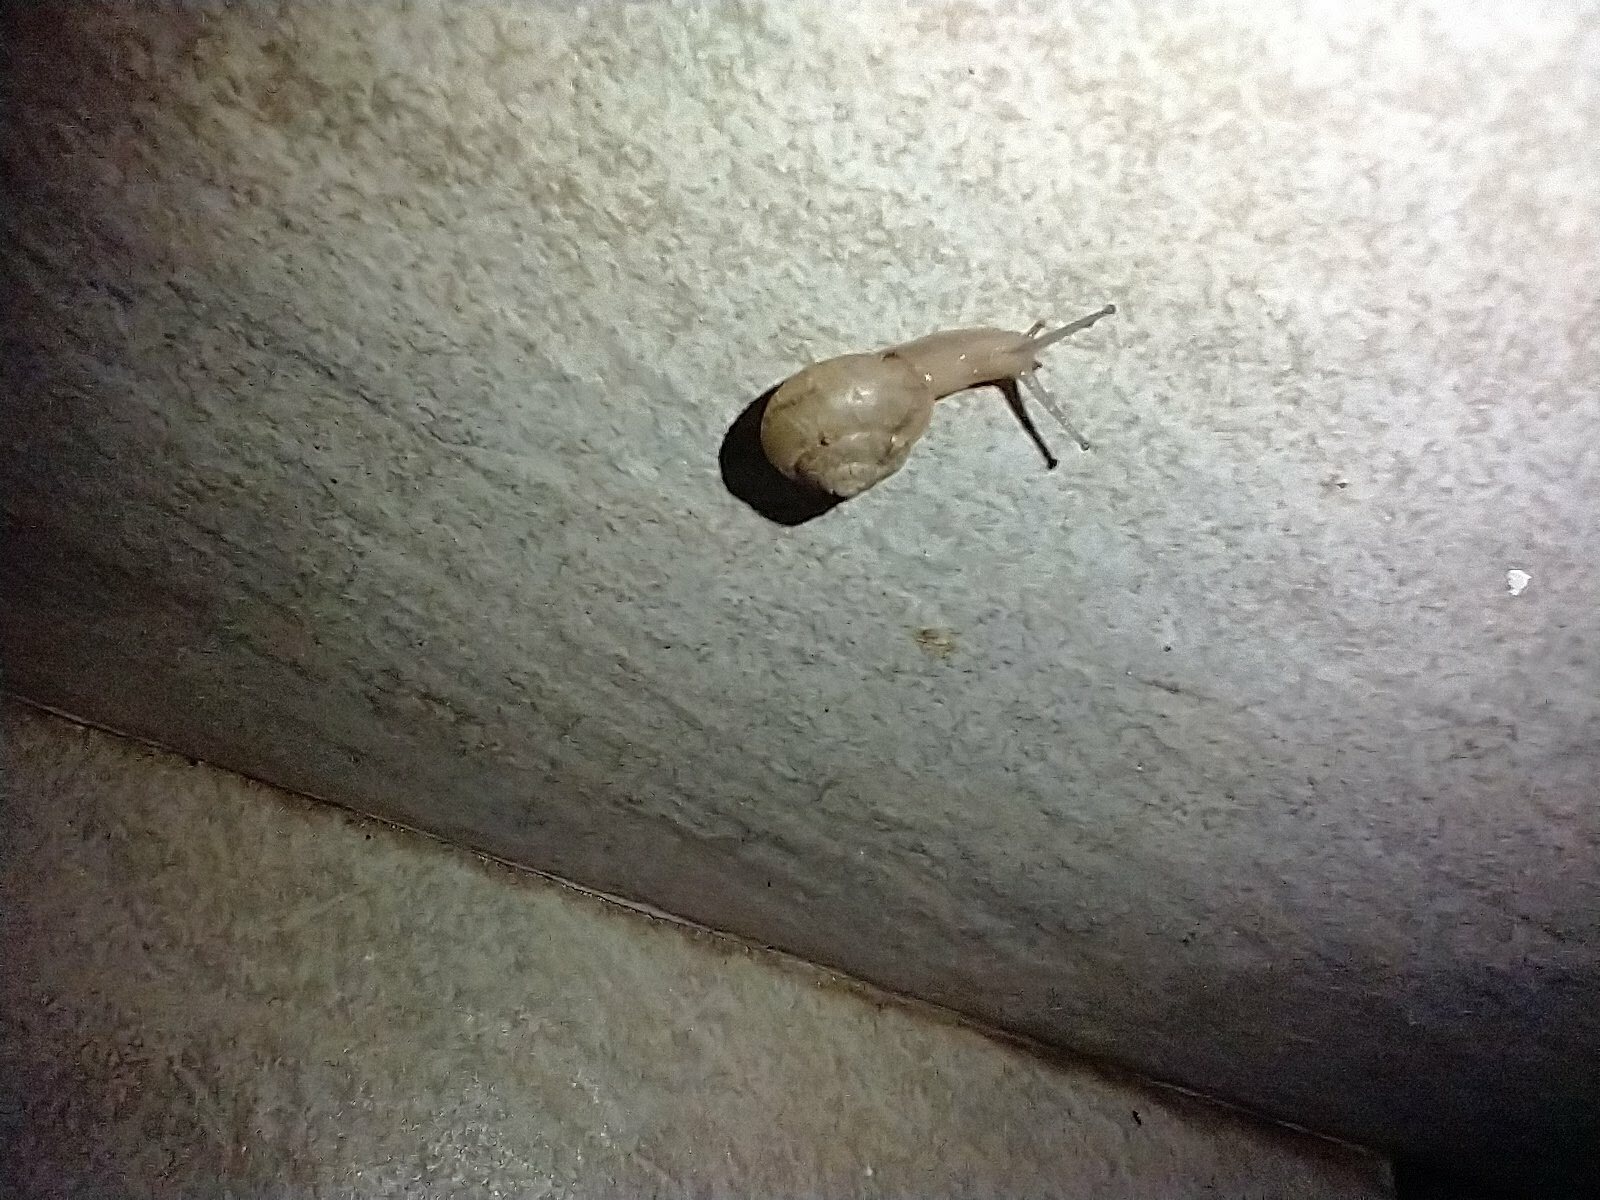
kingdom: Animalia
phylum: Mollusca
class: Gastropoda
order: Stylommatophora
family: Camaenidae
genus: Bradybaena
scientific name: Bradybaena similaris
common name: Asian trampsnail
